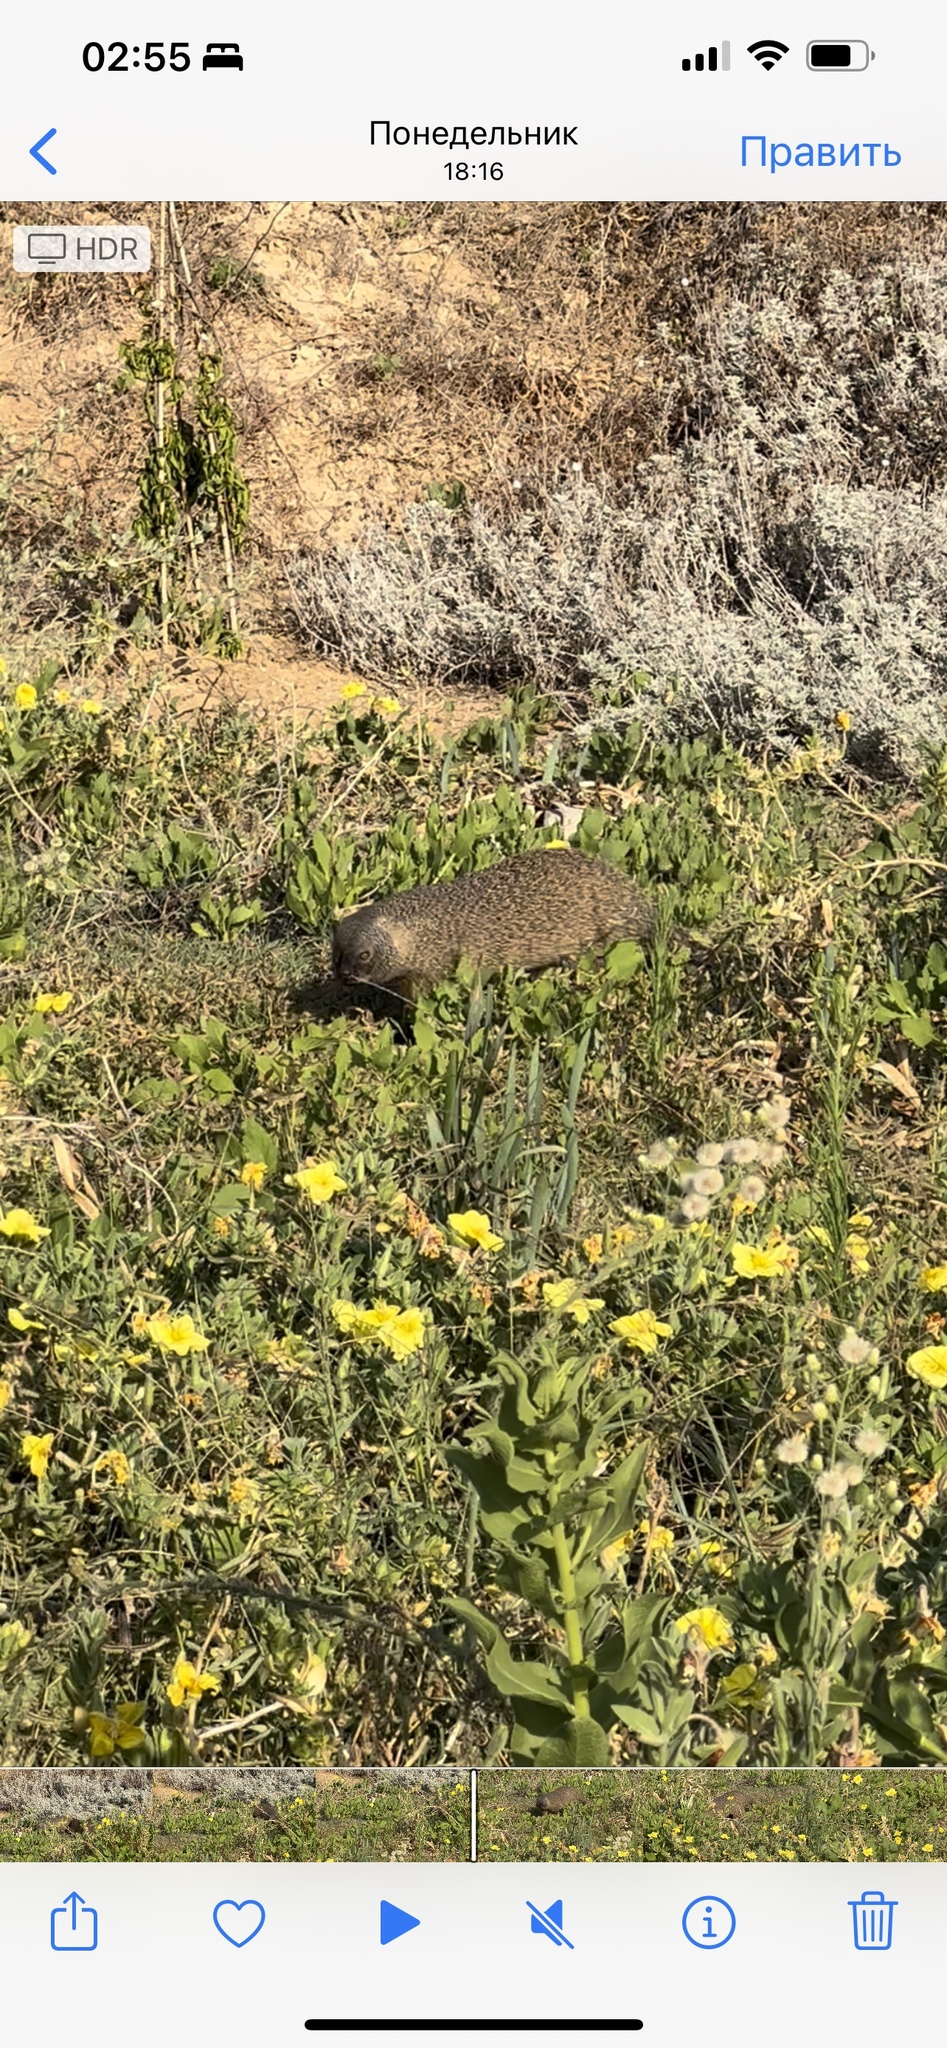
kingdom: Animalia
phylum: Chordata
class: Mammalia
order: Carnivora
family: Herpestidae
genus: Herpestes
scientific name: Herpestes ichneumon
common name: Egyptian mongoose
